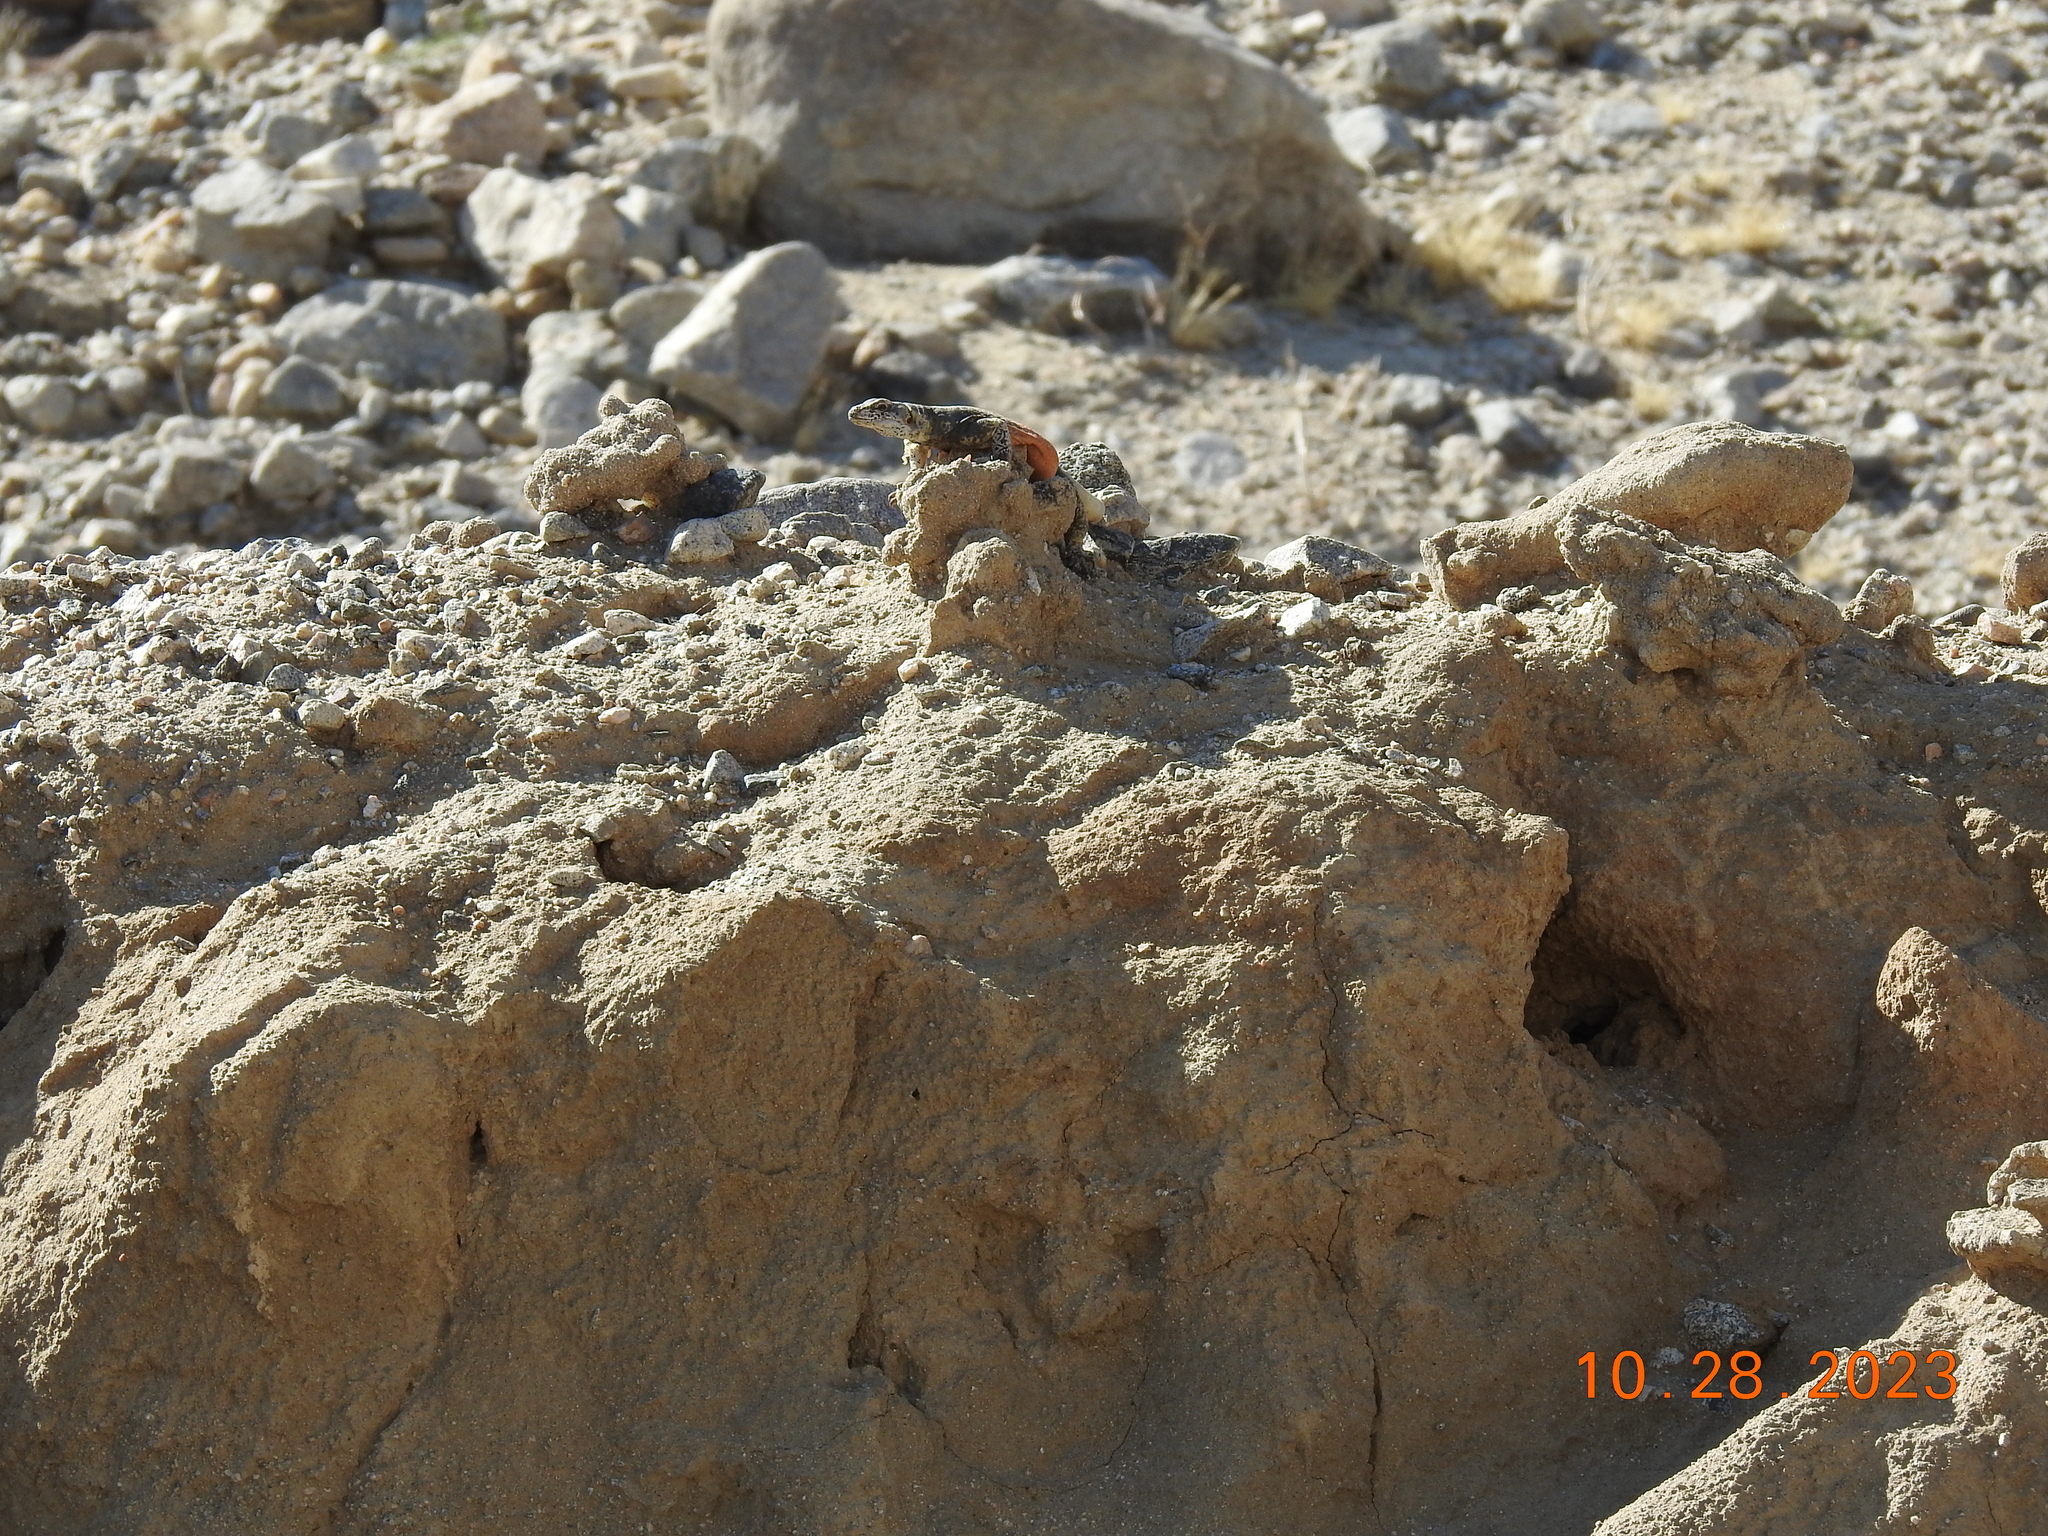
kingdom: Animalia
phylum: Chordata
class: Squamata
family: Iguanidae
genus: Sauromalus
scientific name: Sauromalus ater
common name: Northern chuckwalla
